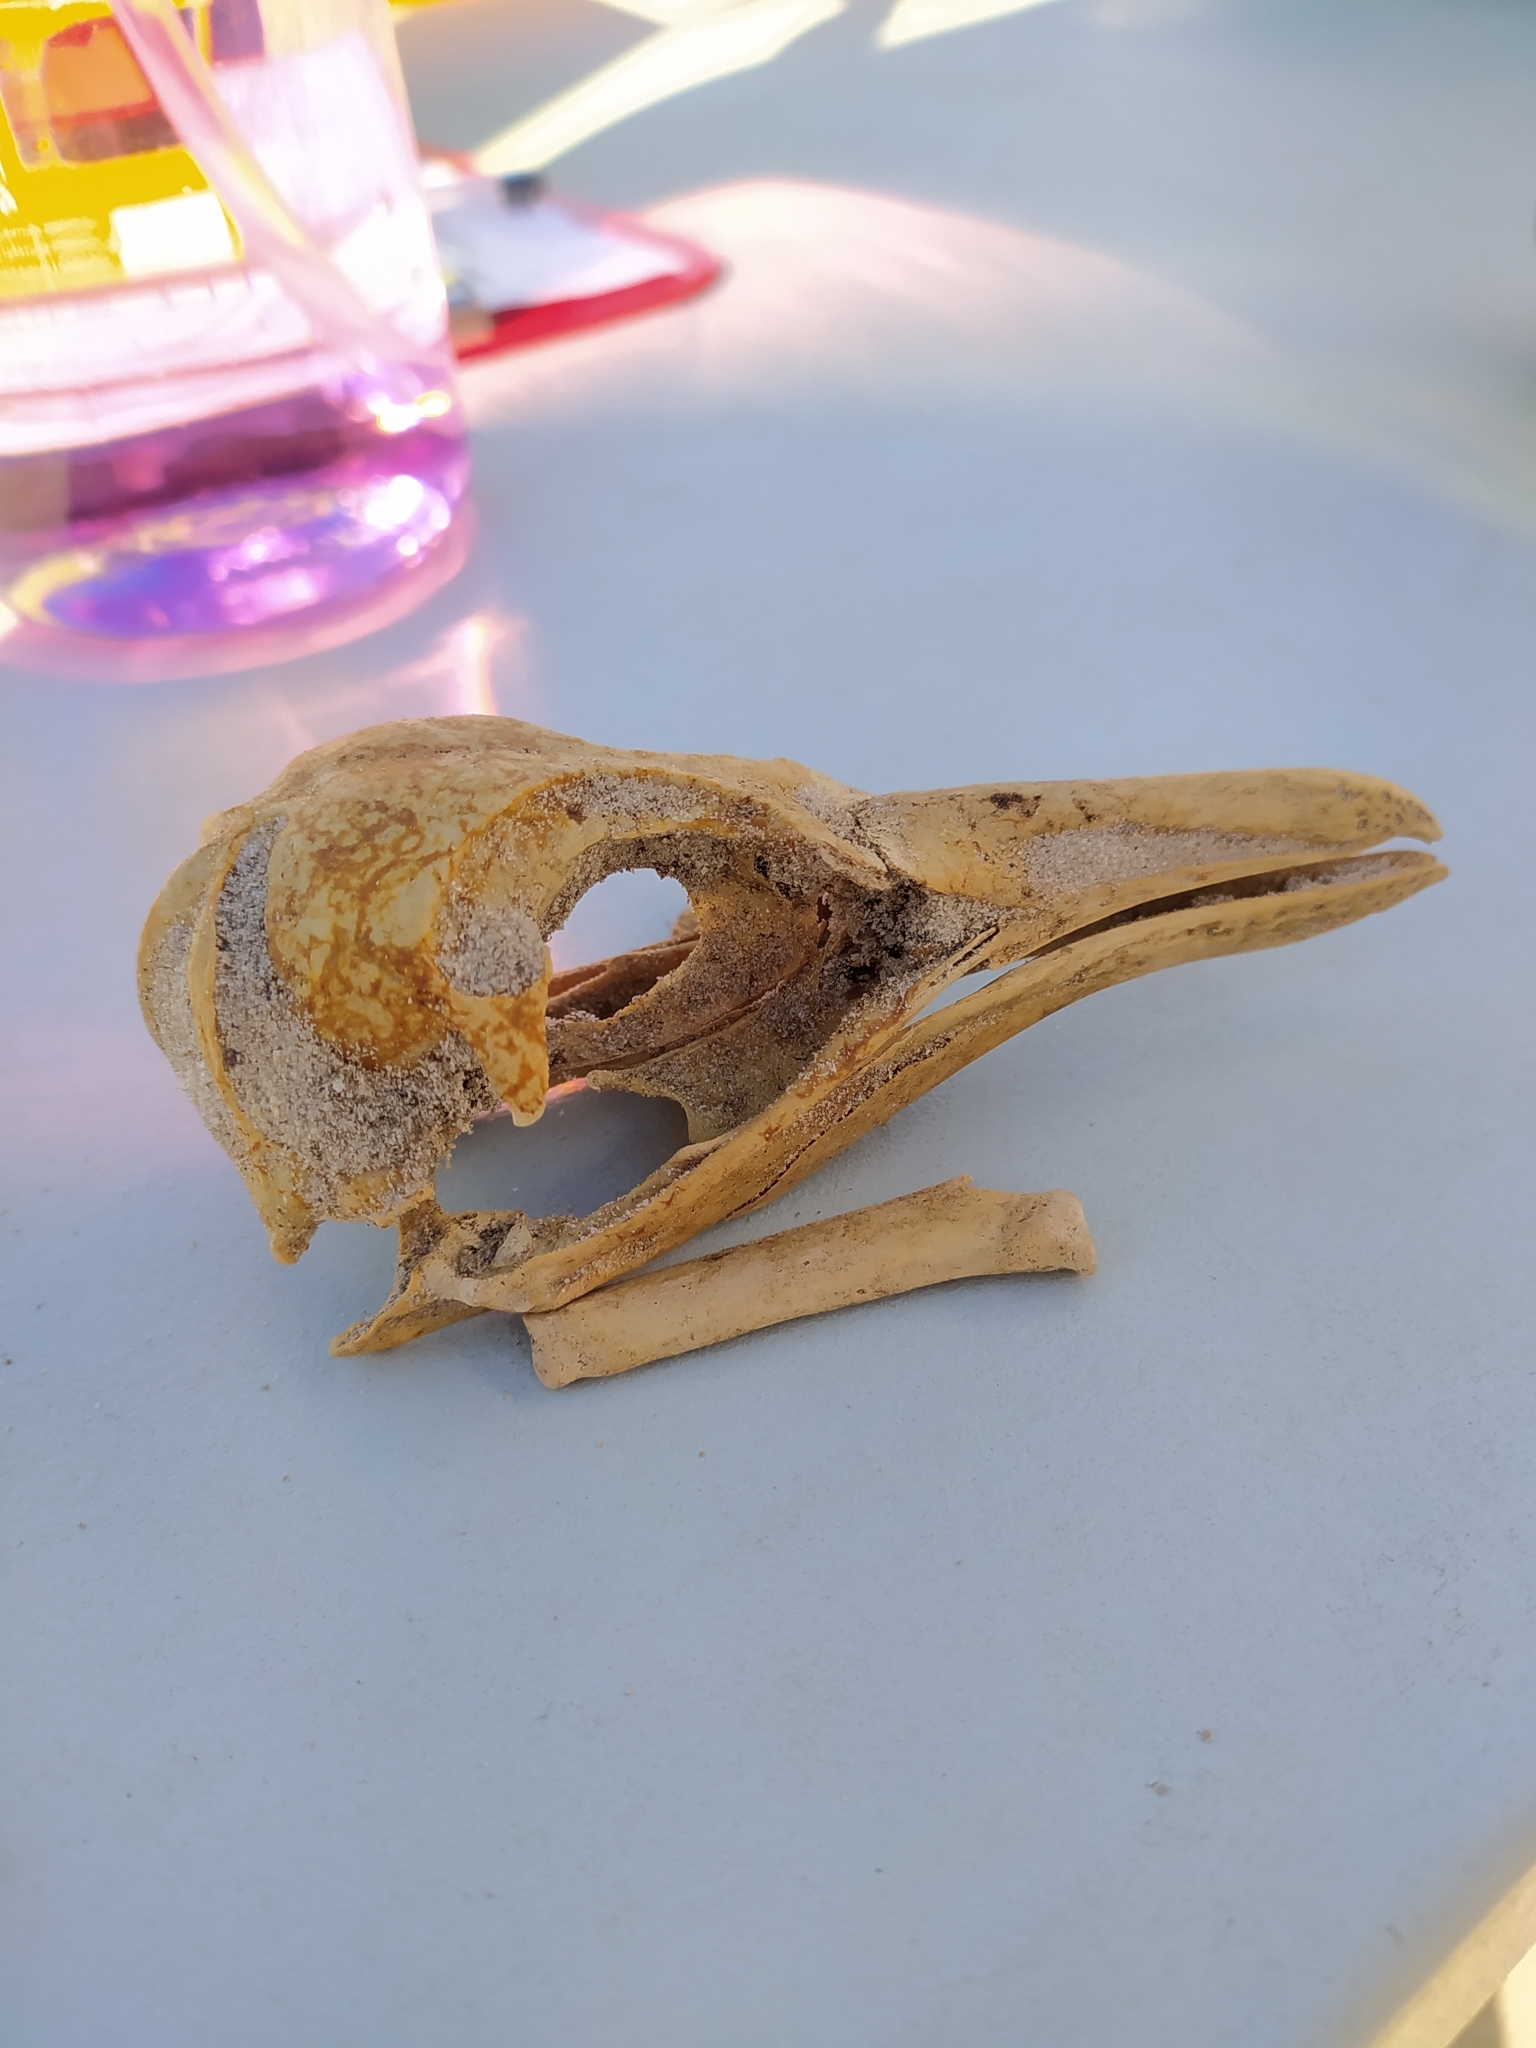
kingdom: Animalia
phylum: Chordata
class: Aves
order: Sphenisciformes
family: Spheniscidae
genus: Spheniscus
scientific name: Spheniscus demersus
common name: African penguin
